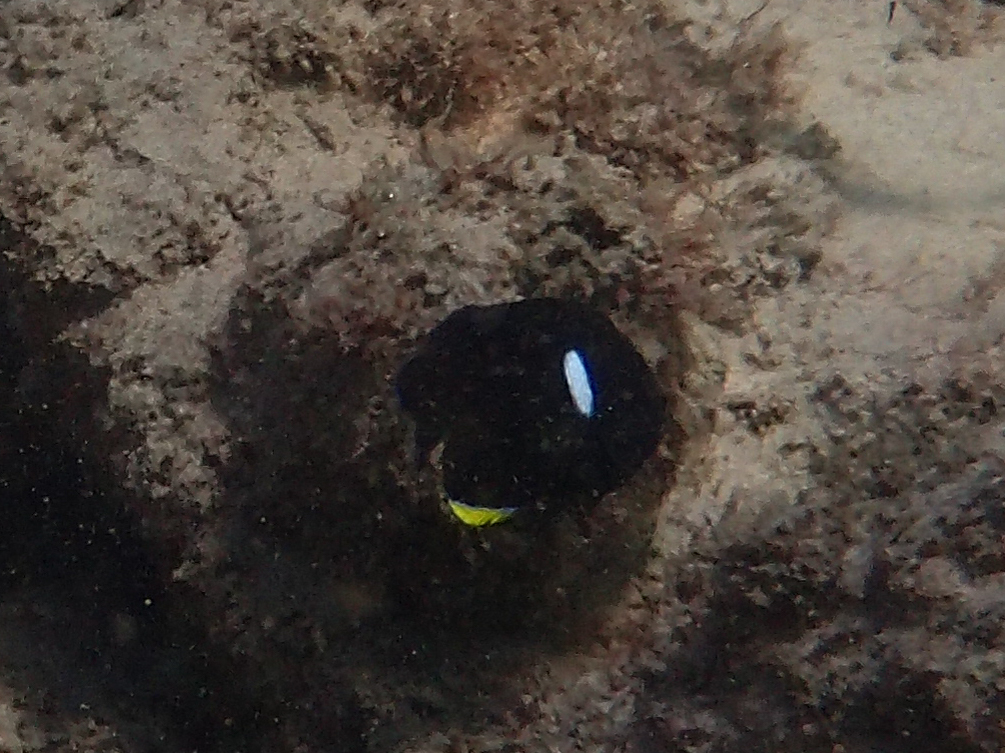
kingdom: Animalia
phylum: Chordata
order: Perciformes
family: Pomacanthidae
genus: Centropyge
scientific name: Centropyge tibicen
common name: Keyhole angelfish
